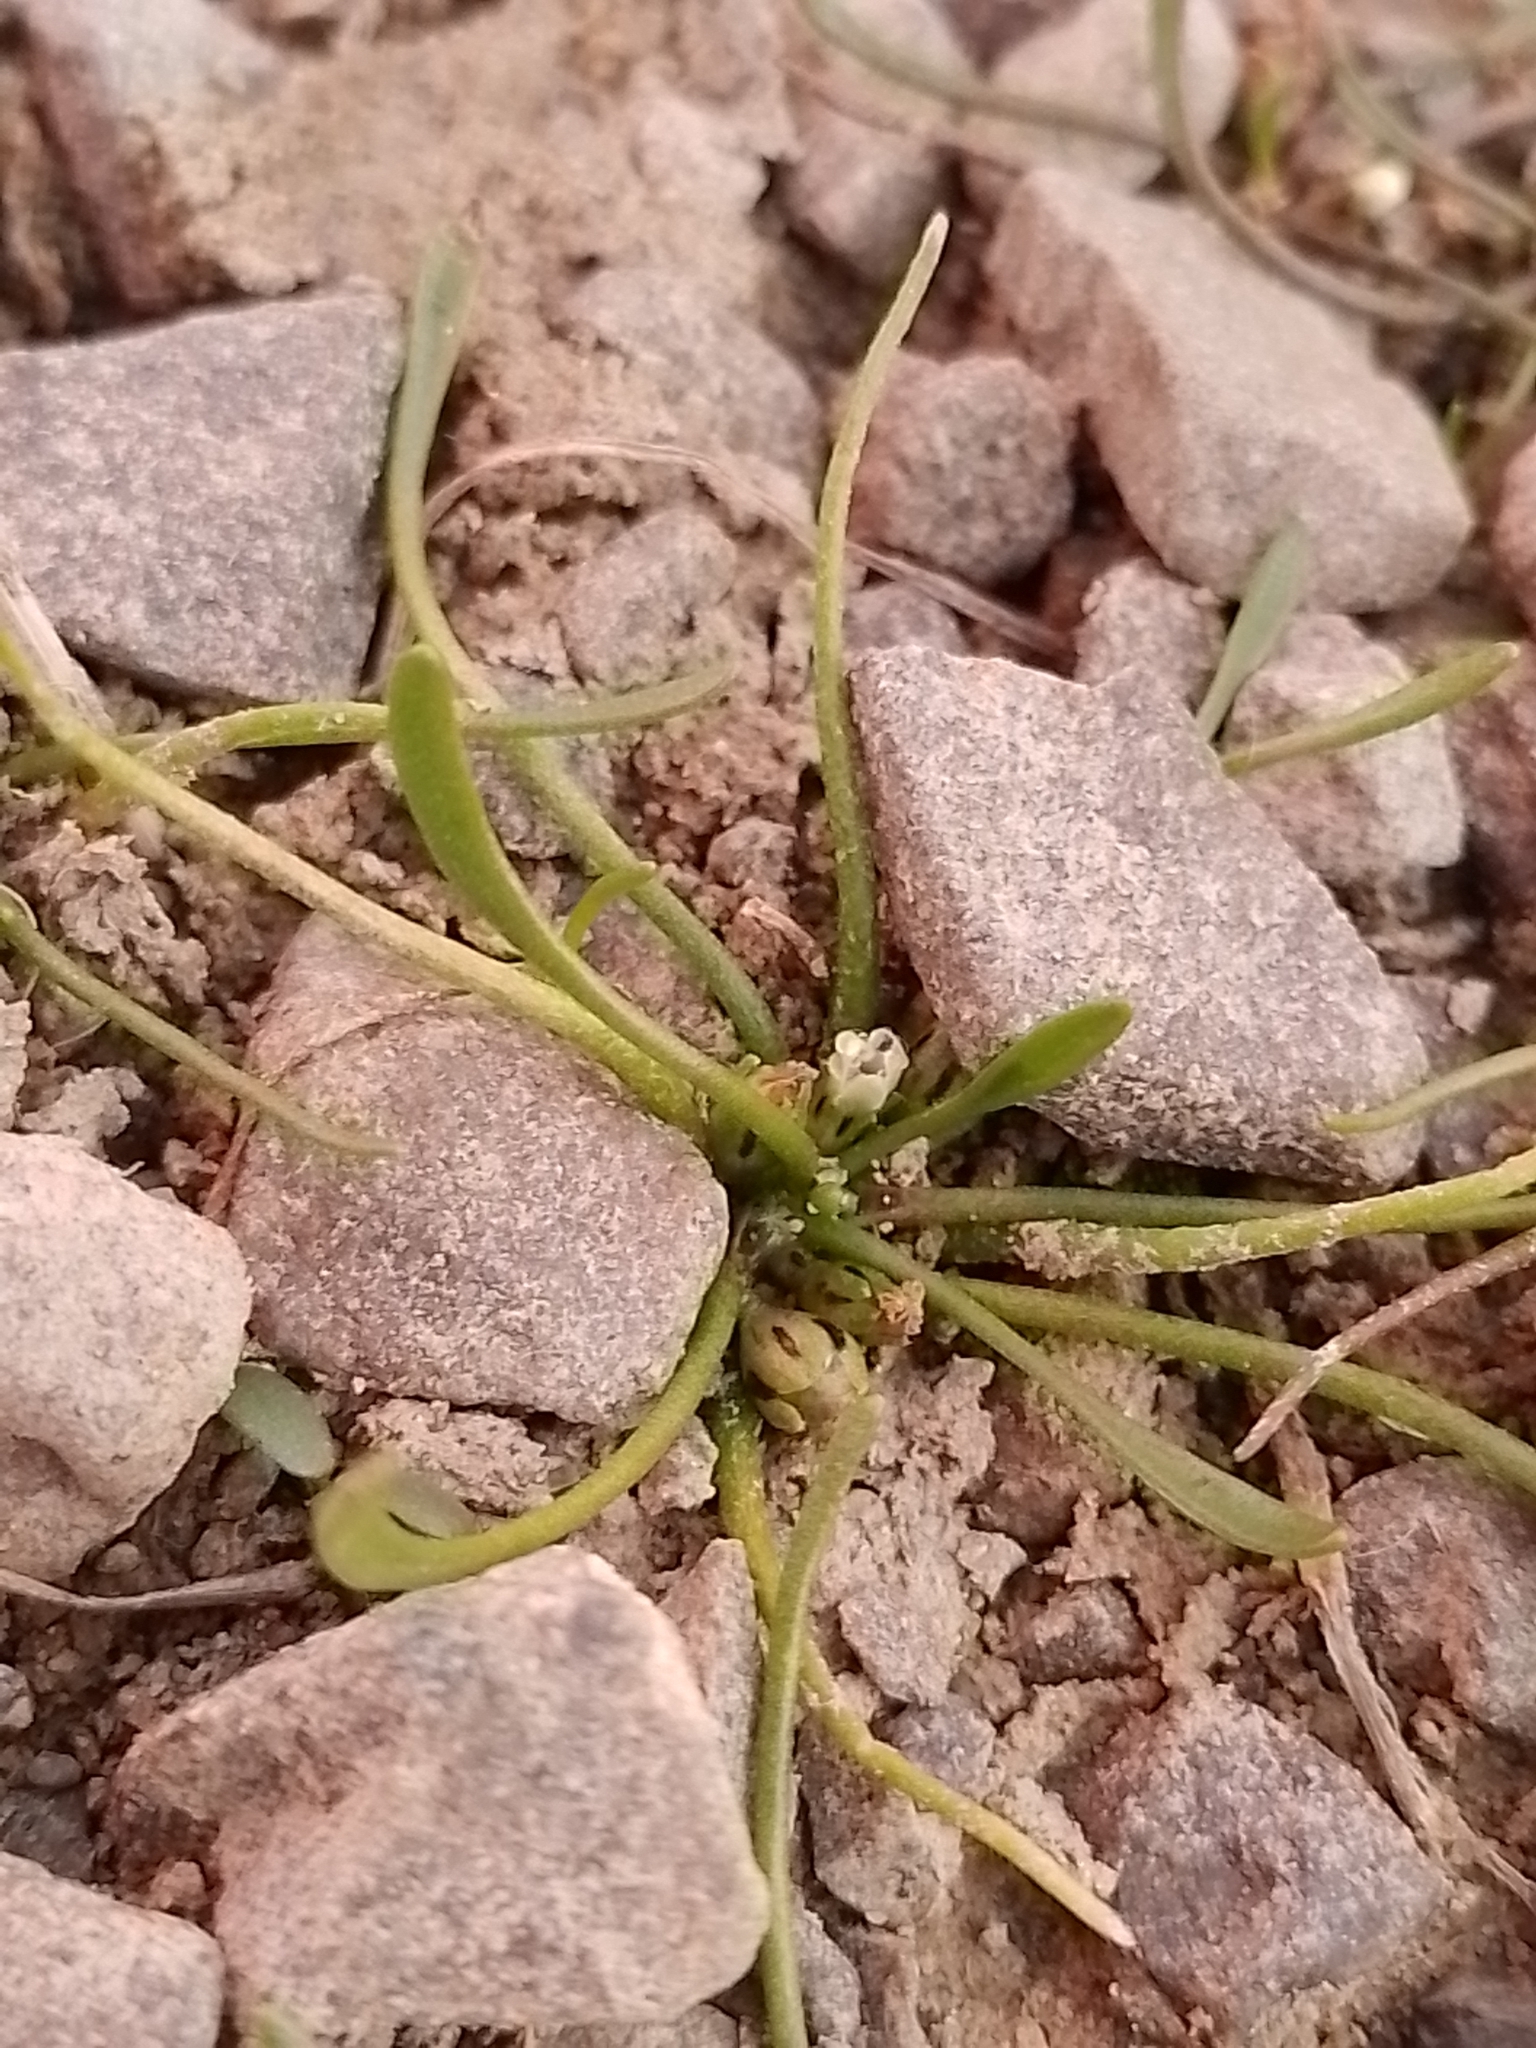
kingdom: Plantae
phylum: Tracheophyta
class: Magnoliopsida
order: Lamiales
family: Scrophulariaceae
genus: Limosella
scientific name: Limosella australis
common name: Welsh mudwort
